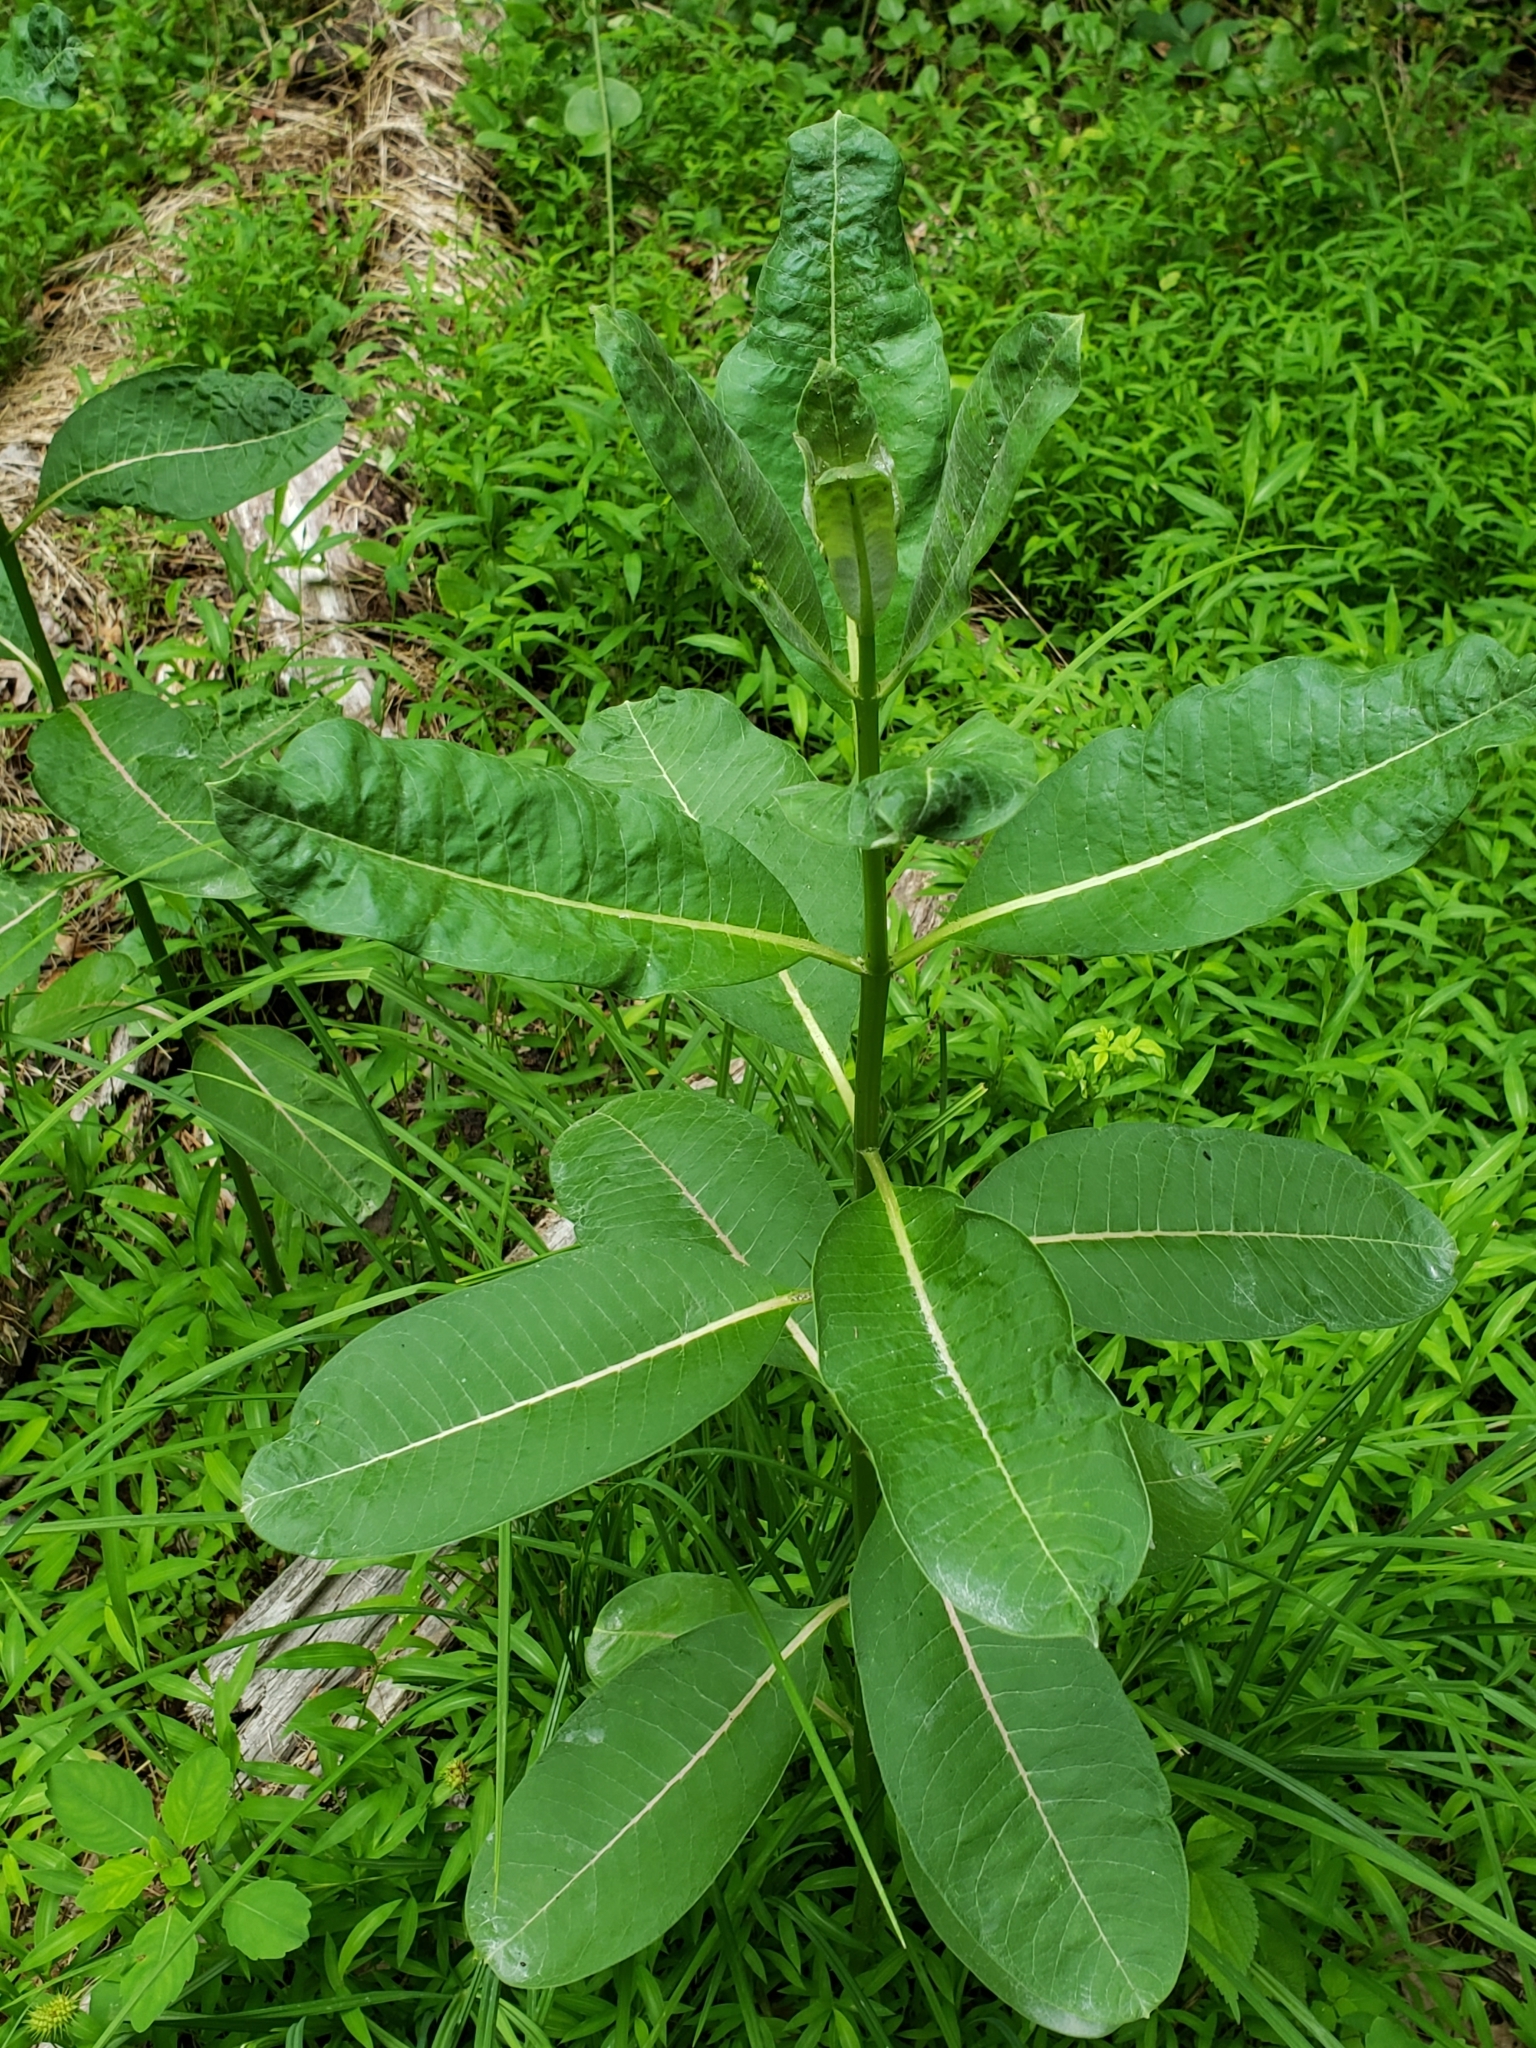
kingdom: Plantae
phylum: Tracheophyta
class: Magnoliopsida
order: Gentianales
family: Apocynaceae
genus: Asclepias
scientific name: Asclepias syriaca
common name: Common milkweed
